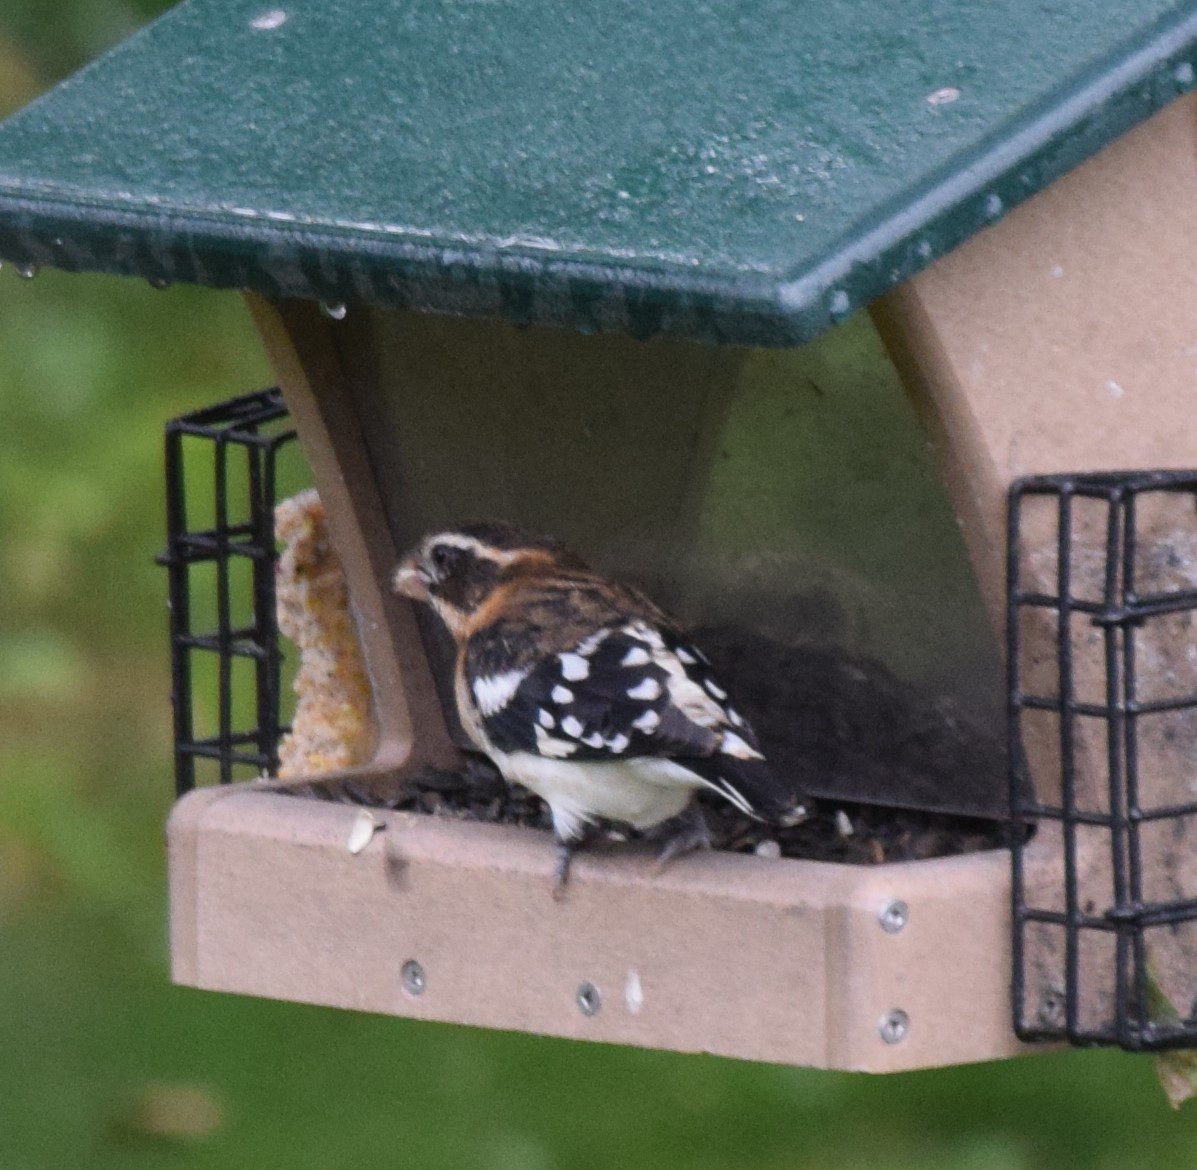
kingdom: Animalia
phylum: Chordata
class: Aves
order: Passeriformes
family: Cardinalidae
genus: Pheucticus
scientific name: Pheucticus ludovicianus
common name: Rose-breasted grosbeak
